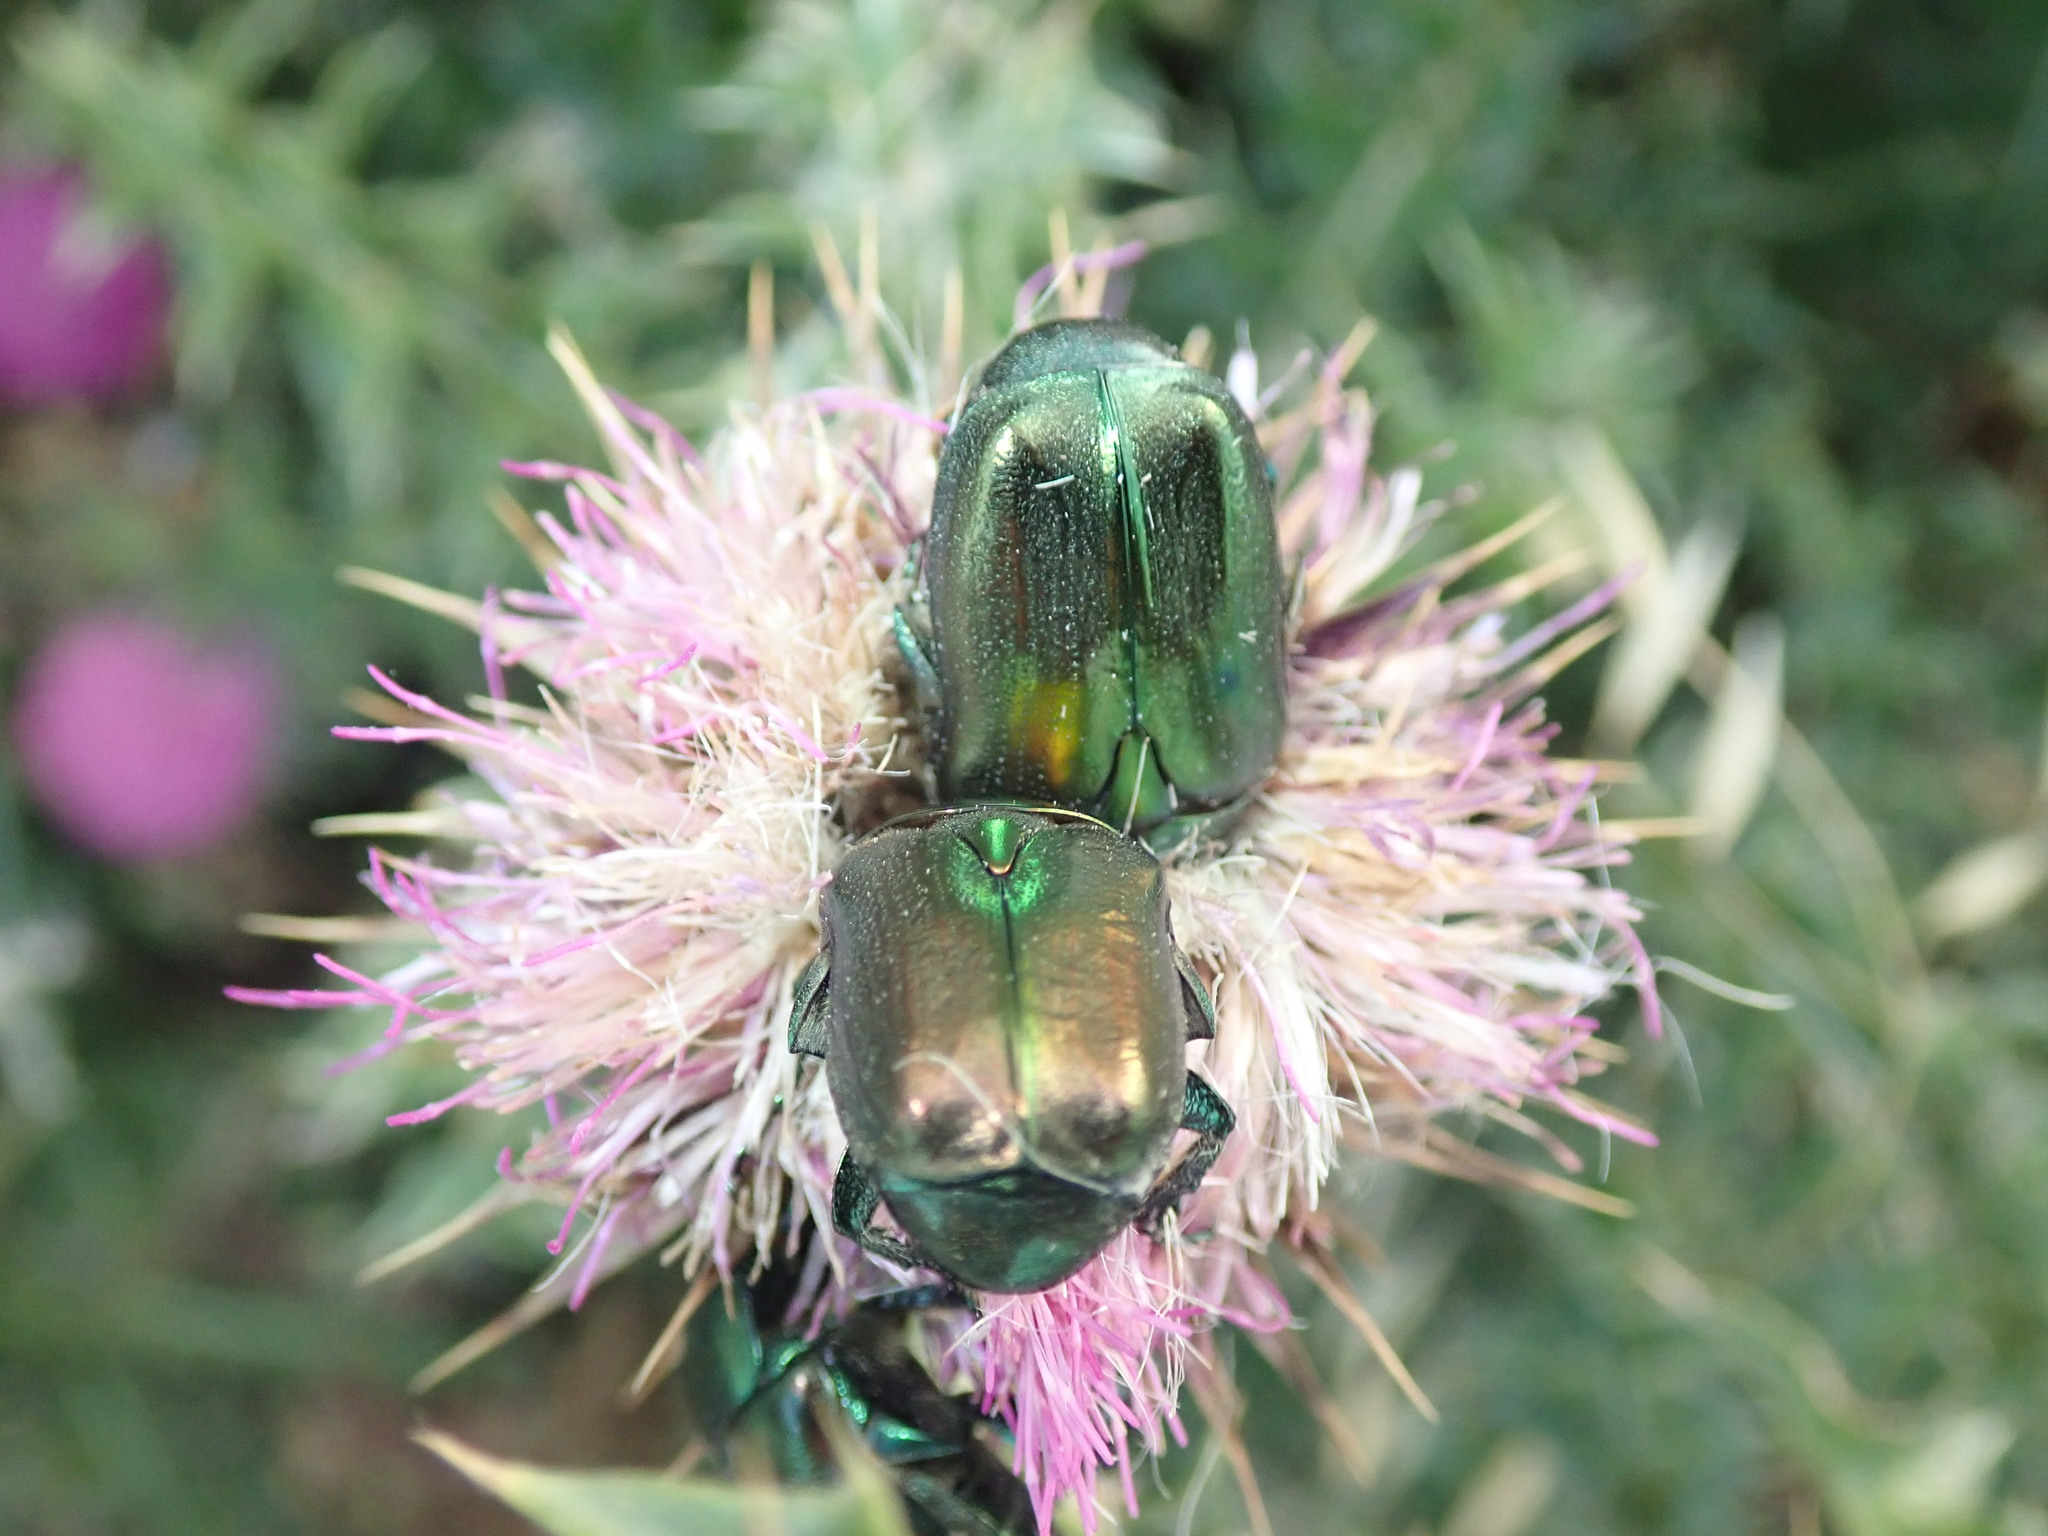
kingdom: Animalia
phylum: Arthropoda
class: Insecta
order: Coleoptera
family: Scarabaeidae
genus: Protaetia
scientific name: Protaetia angustata
